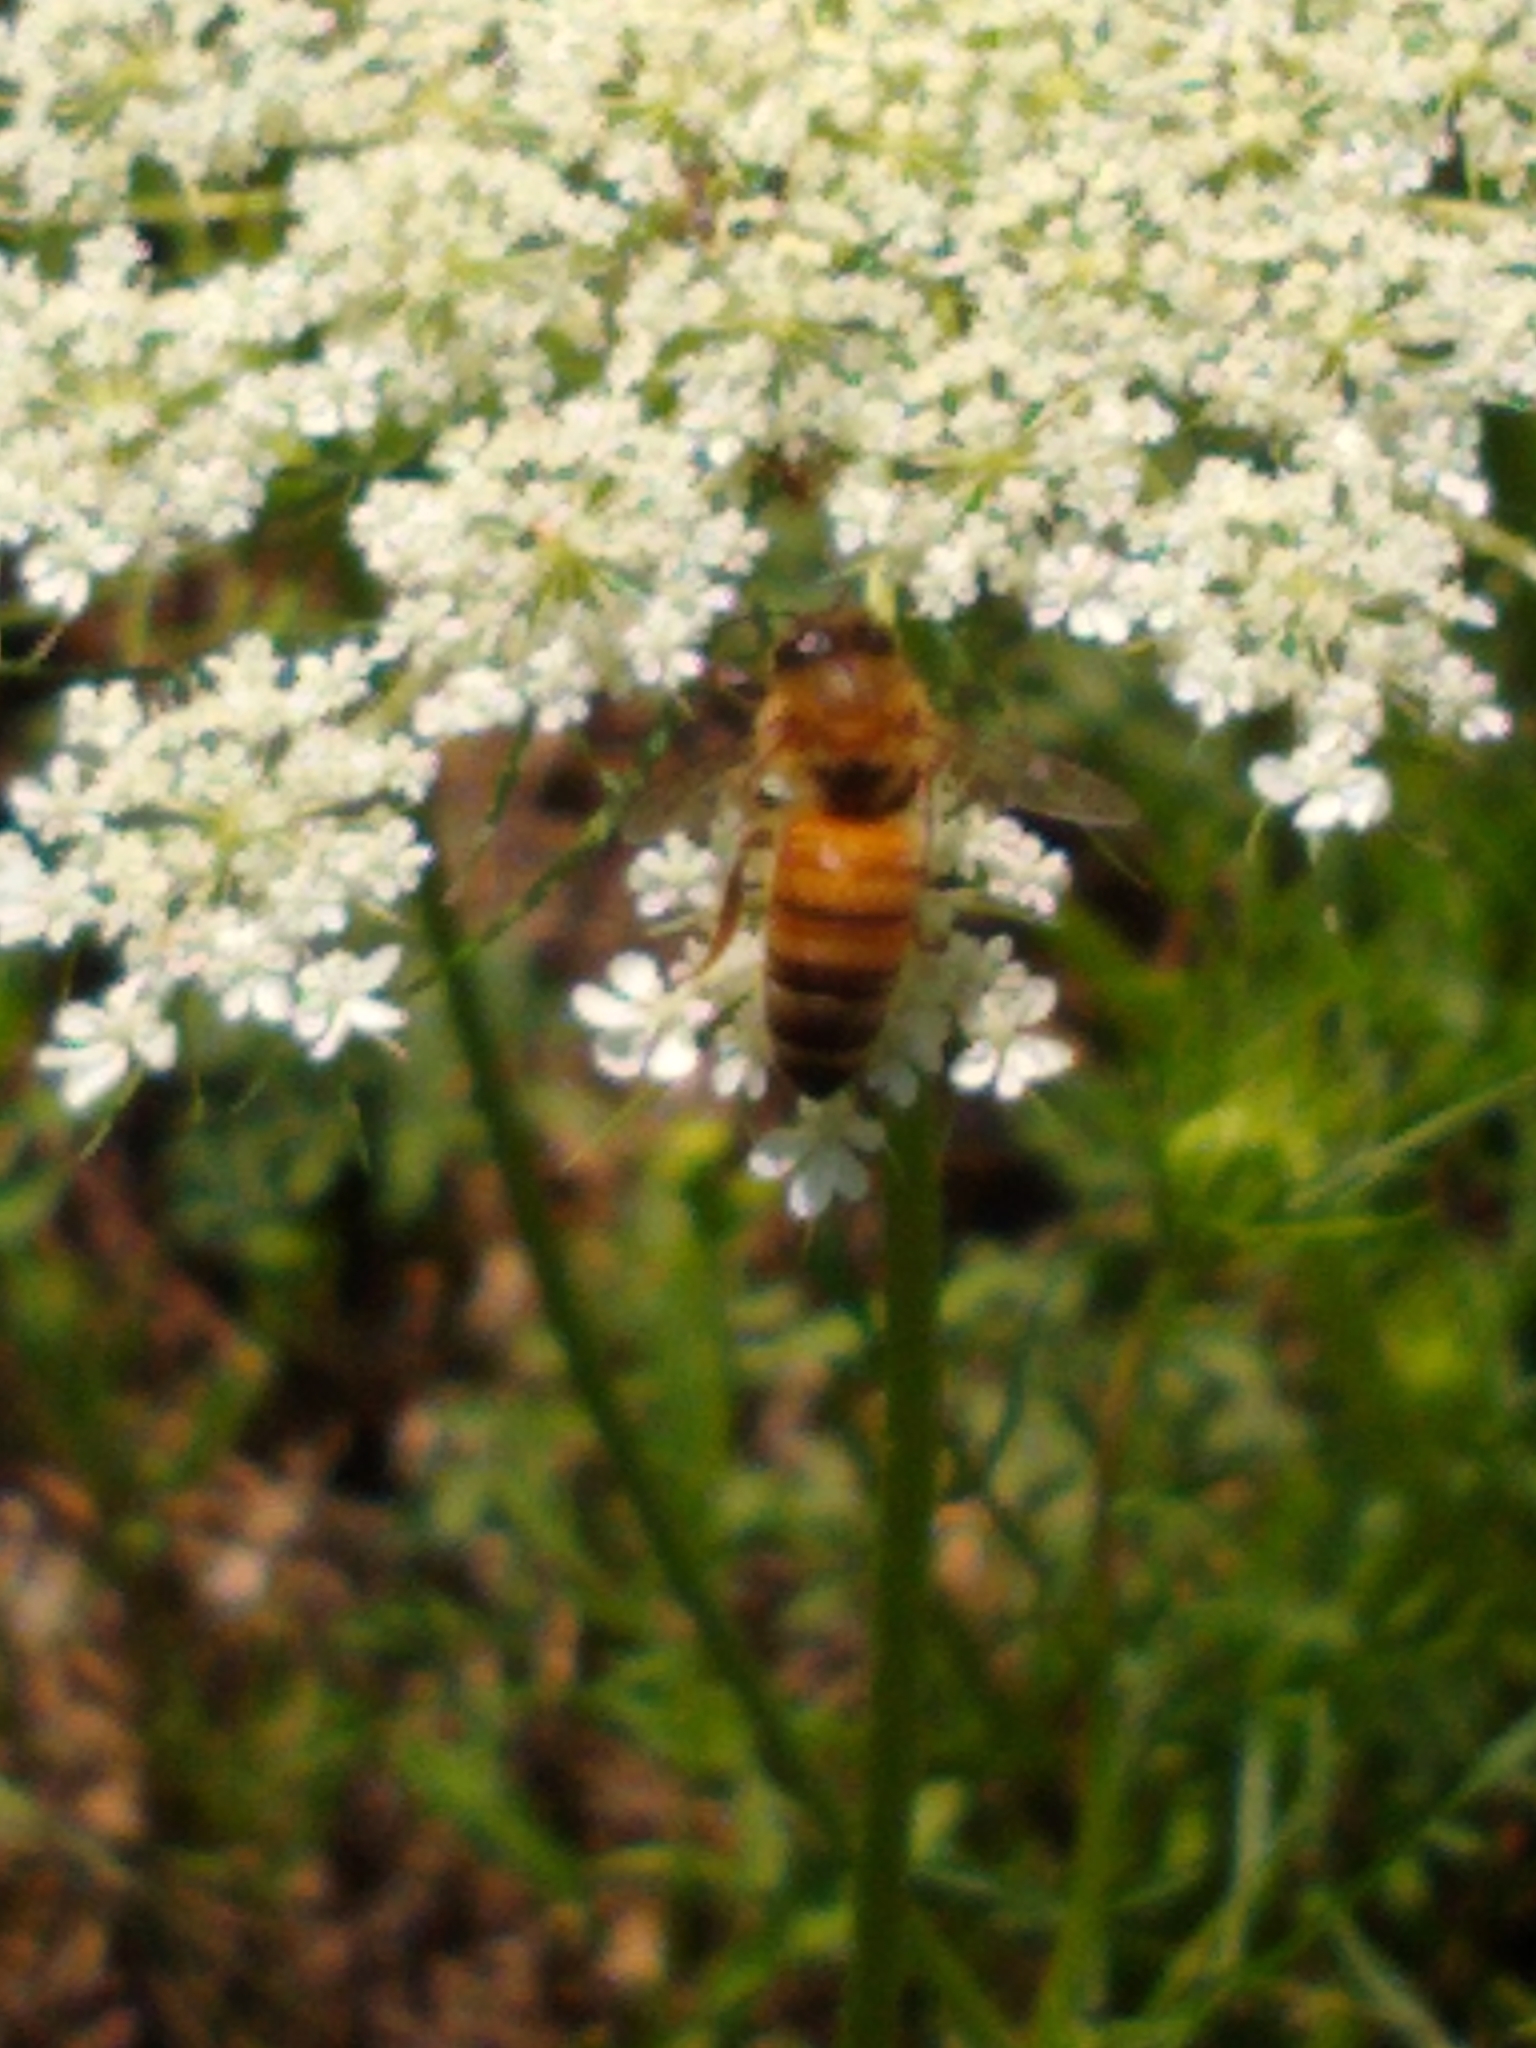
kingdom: Animalia
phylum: Arthropoda
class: Insecta
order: Hymenoptera
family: Apidae
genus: Apis
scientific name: Apis mellifera
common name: Honey bee
